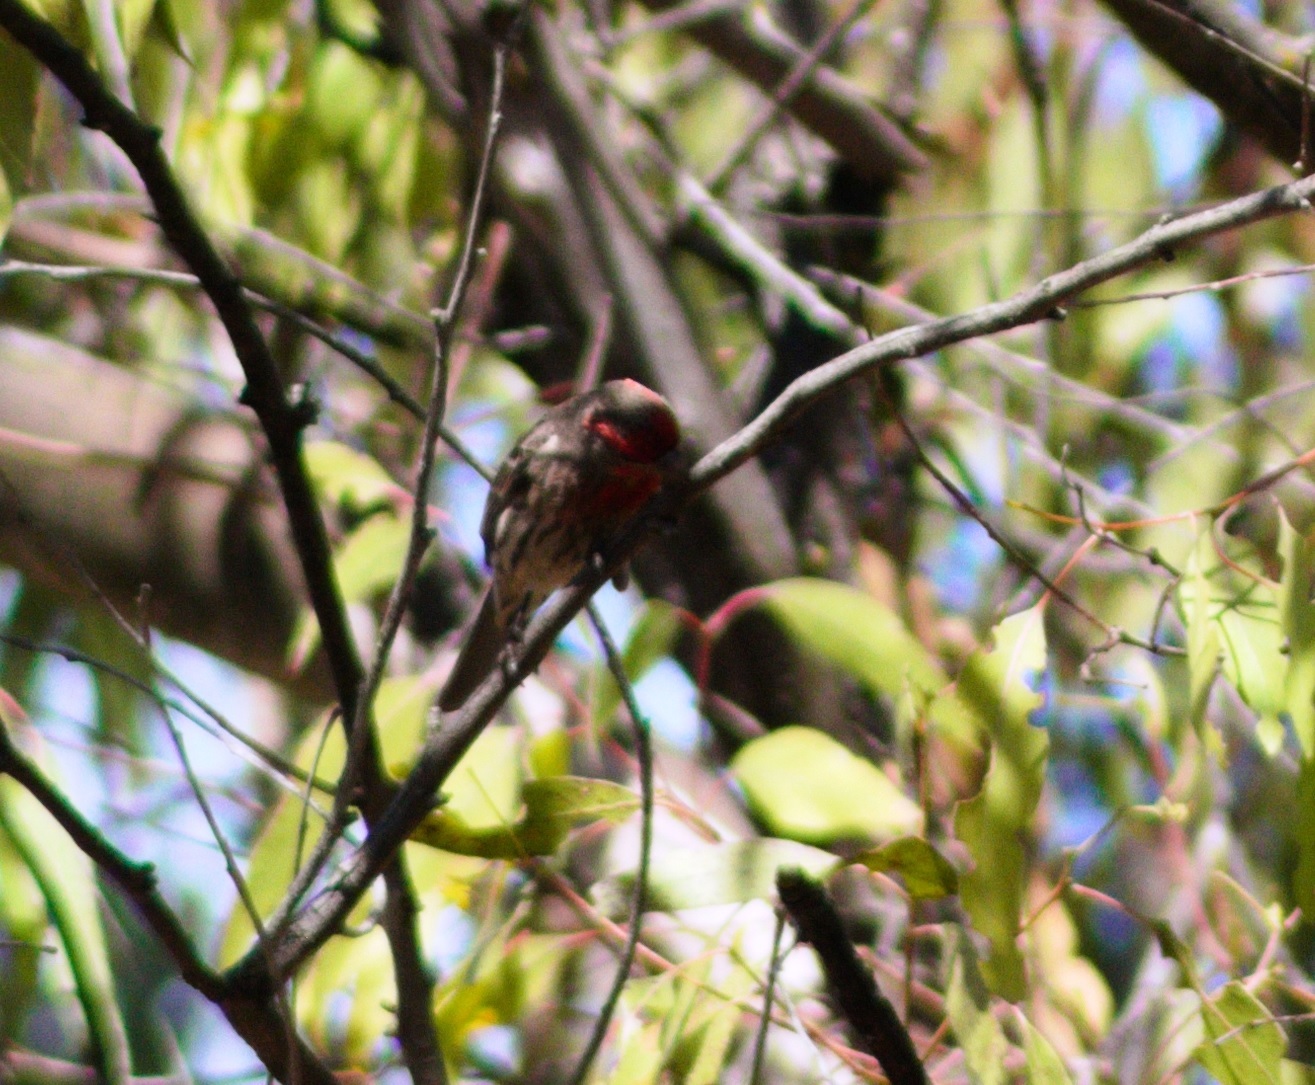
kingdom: Animalia
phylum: Chordata
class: Aves
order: Passeriformes
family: Fringillidae
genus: Haemorhous
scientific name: Haemorhous mexicanus
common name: House finch
